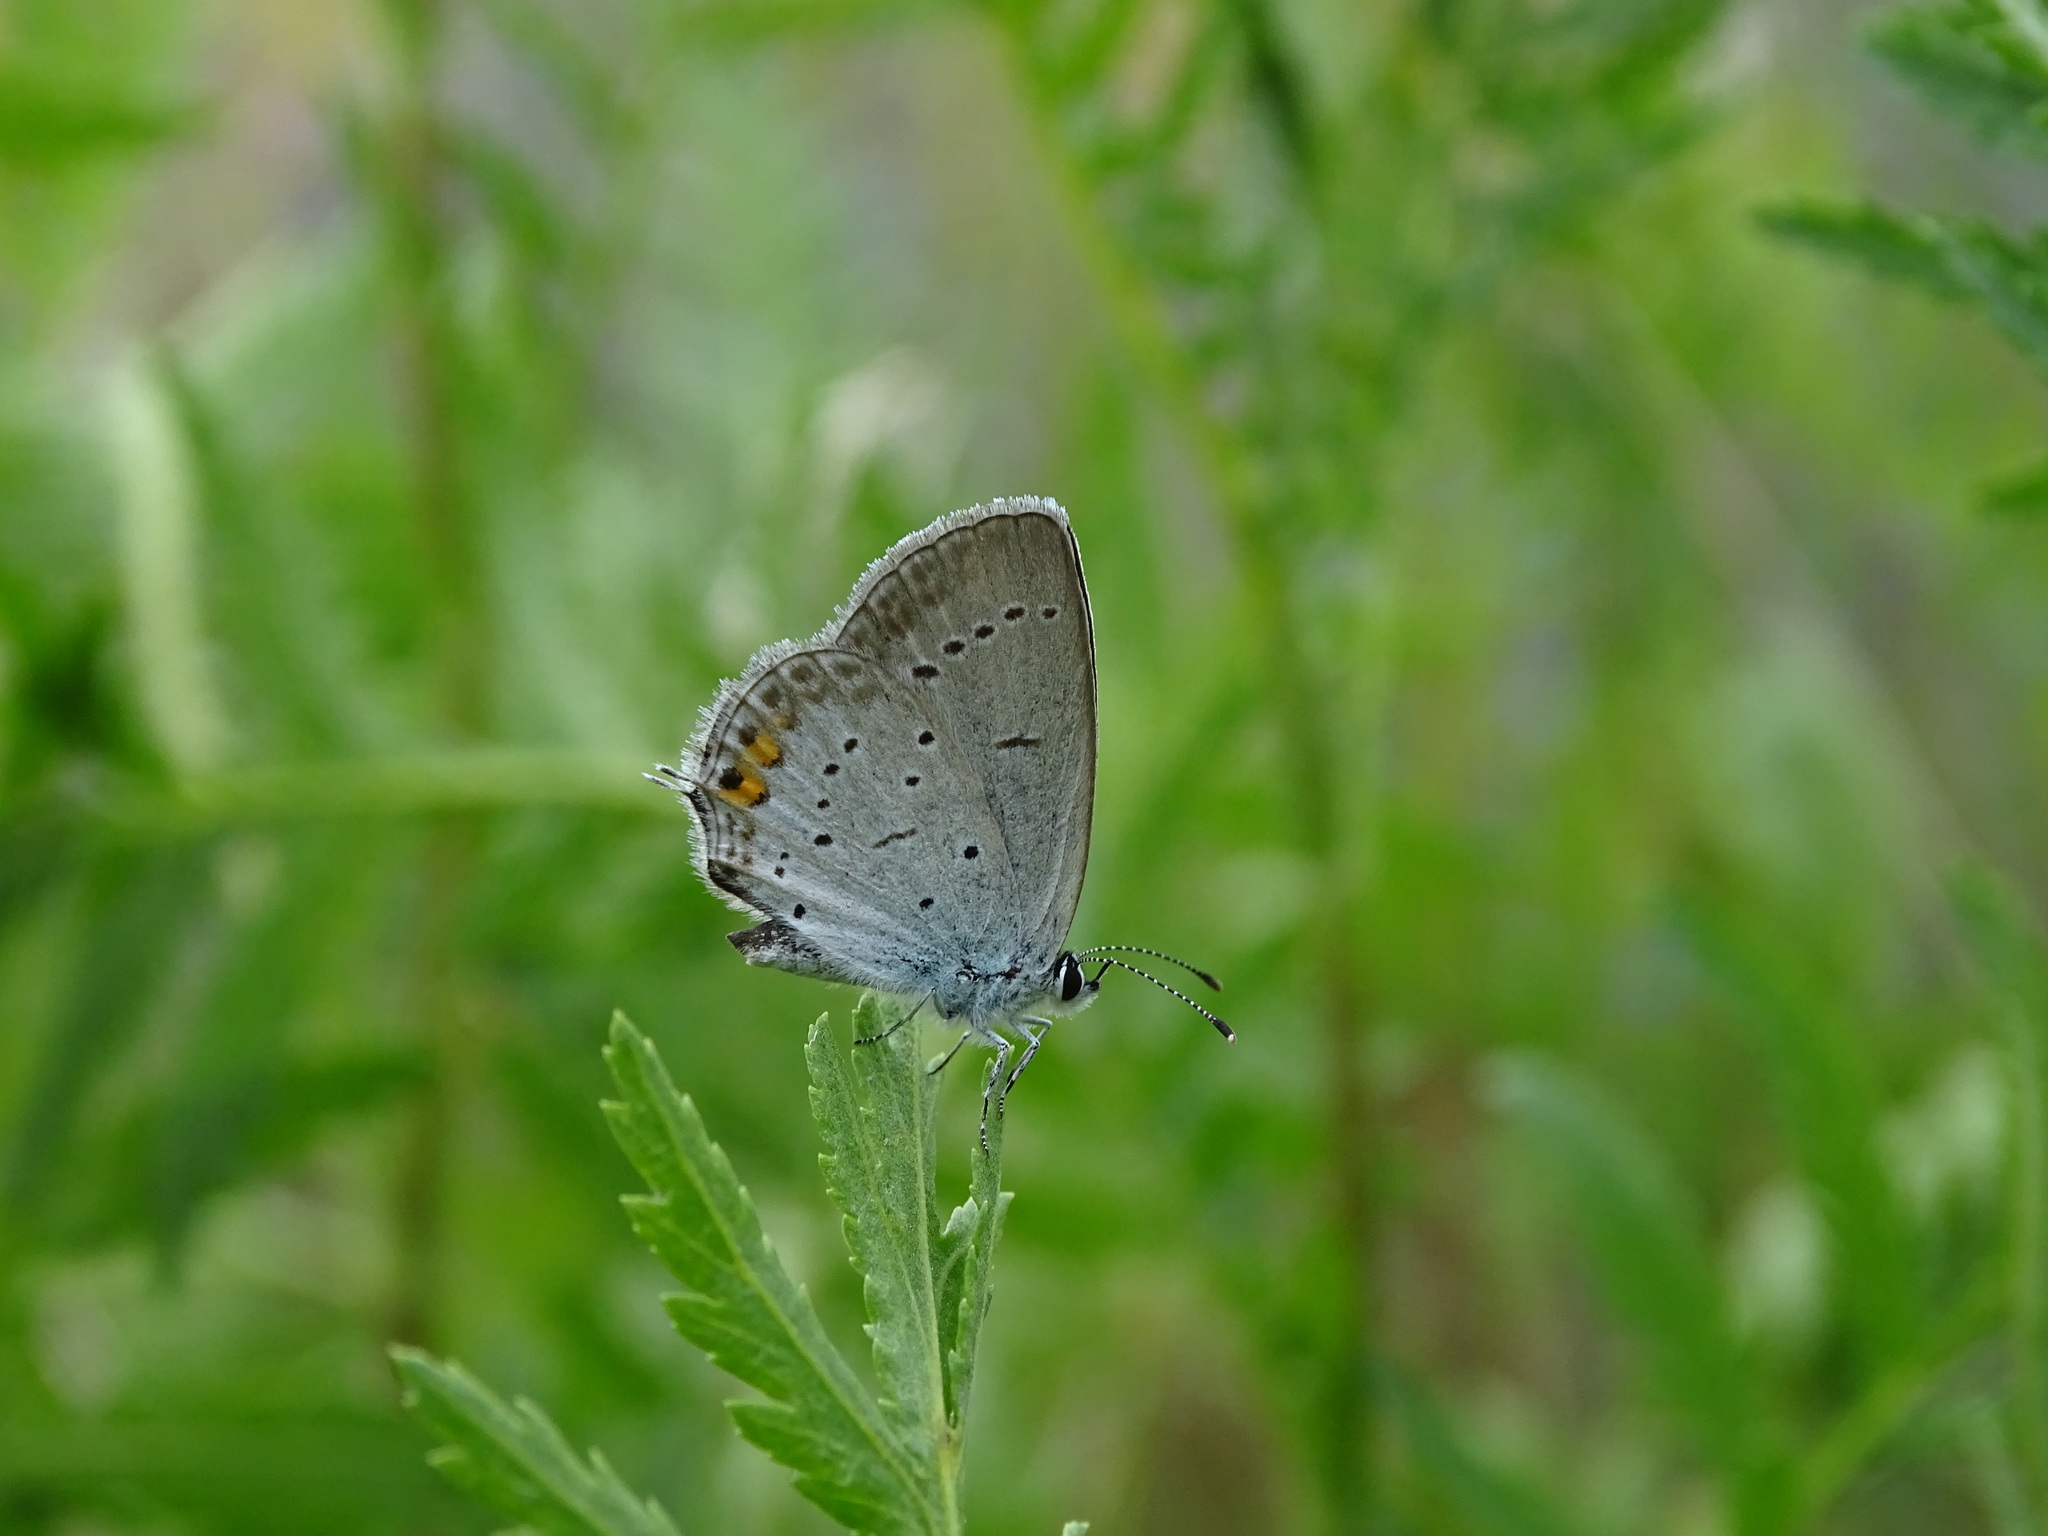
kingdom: Animalia
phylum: Arthropoda
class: Insecta
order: Lepidoptera
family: Lycaenidae
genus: Elkalyce
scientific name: Elkalyce argiades
